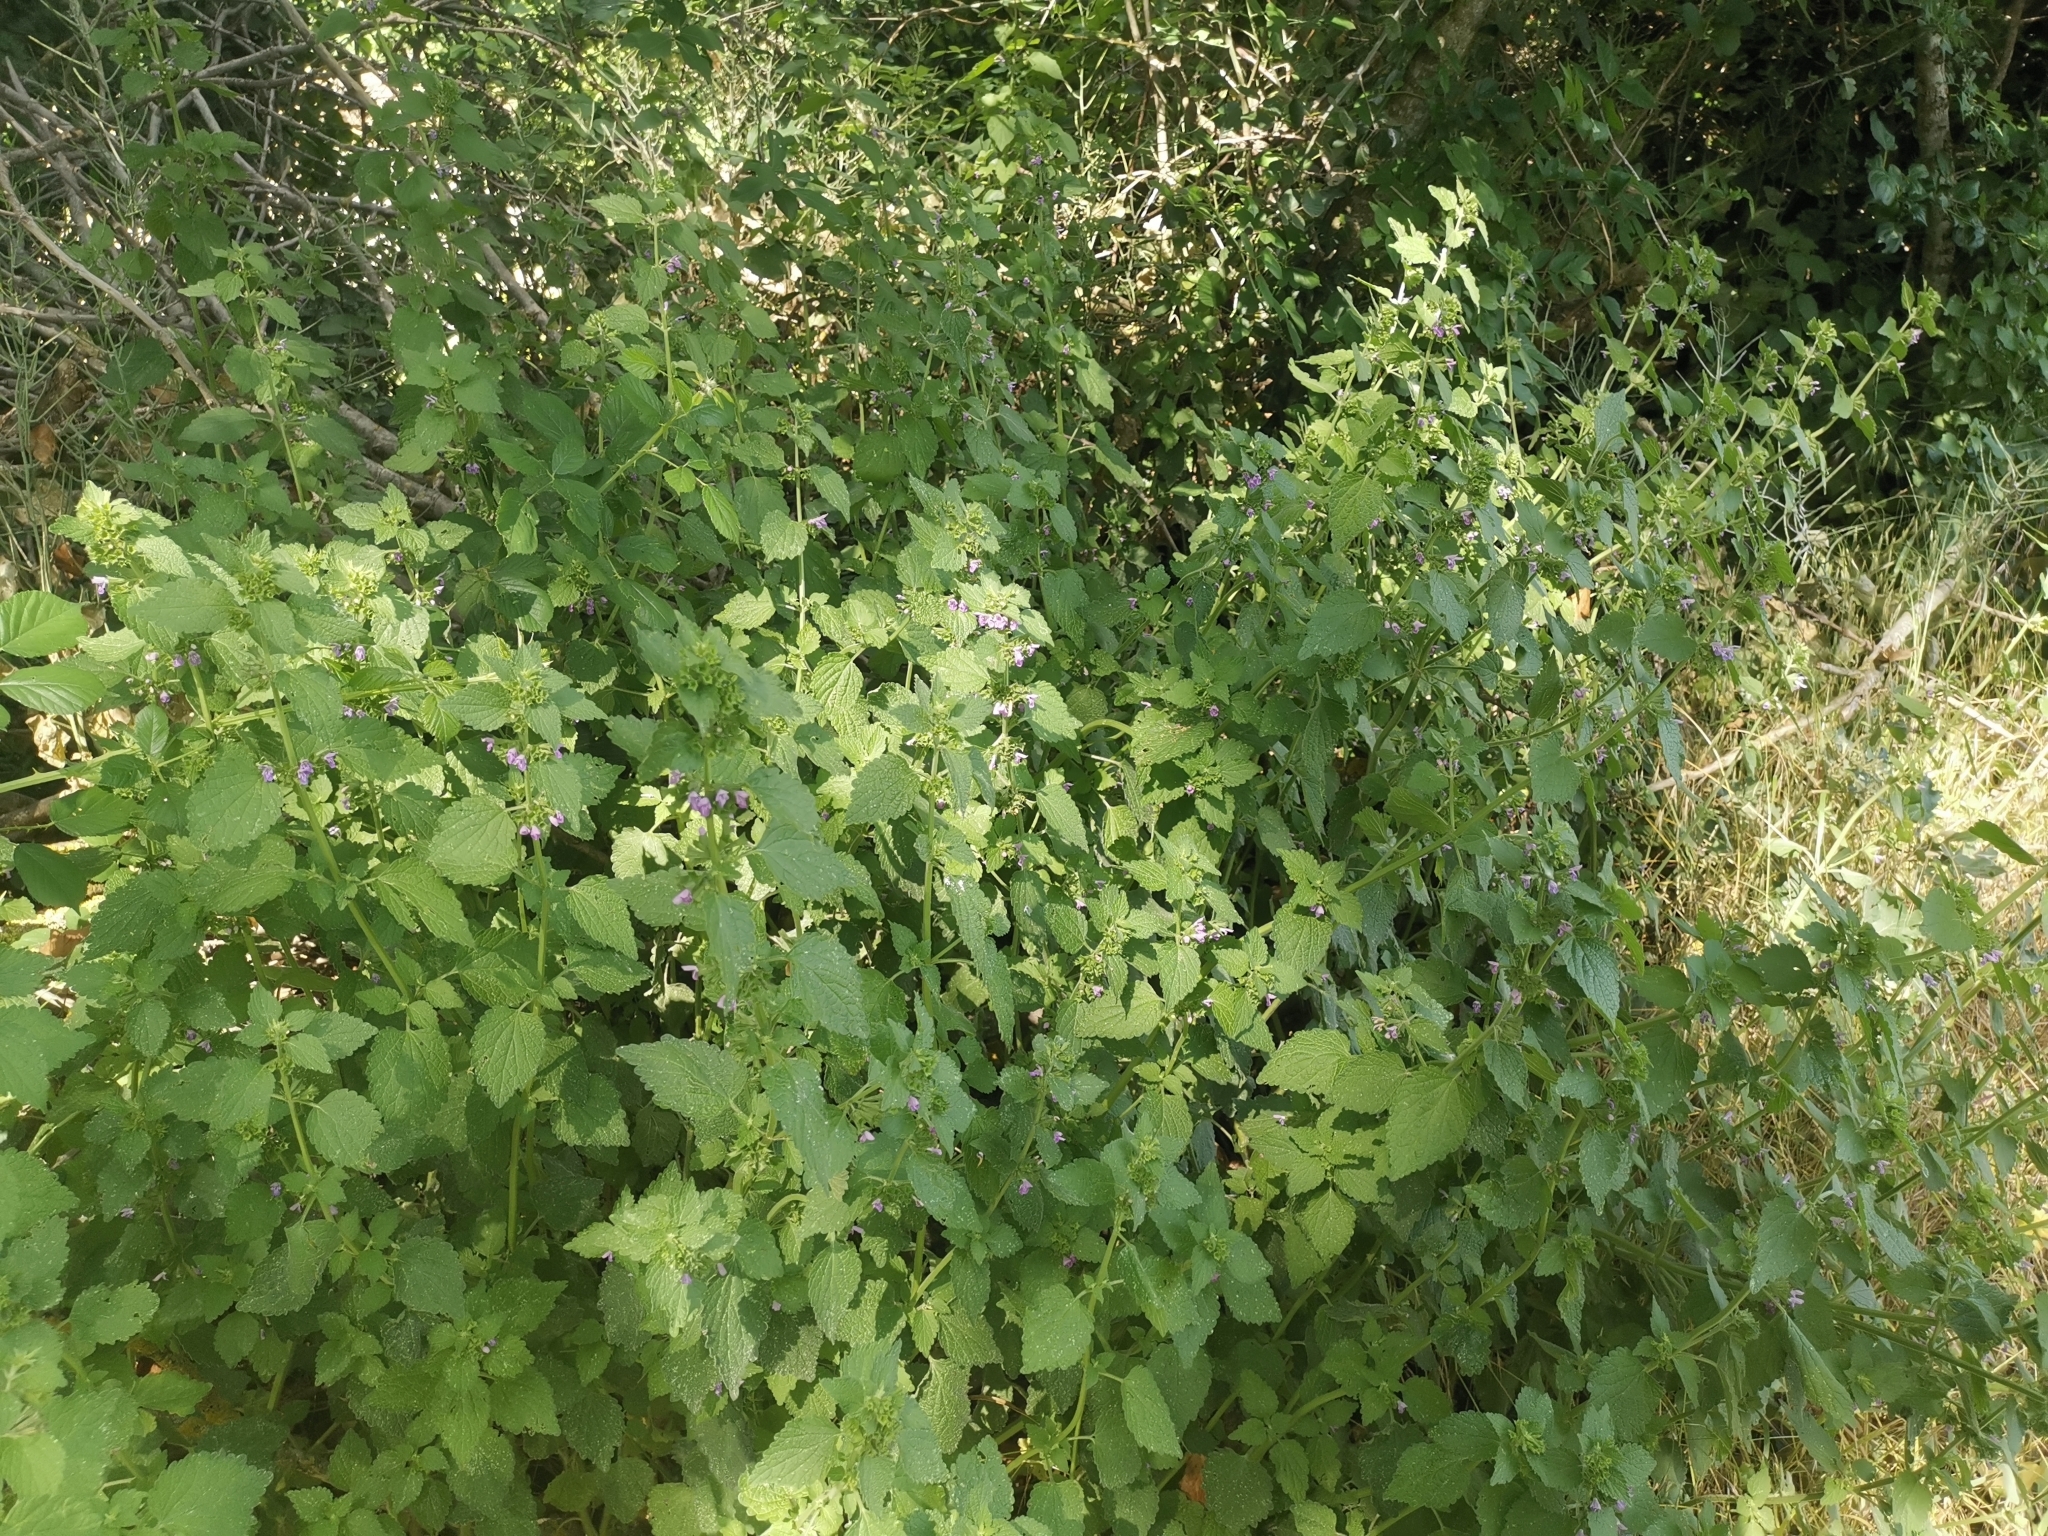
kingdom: Plantae
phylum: Tracheophyta
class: Magnoliopsida
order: Lamiales
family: Lamiaceae
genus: Ballota
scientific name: Ballota nigra
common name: Black horehound
